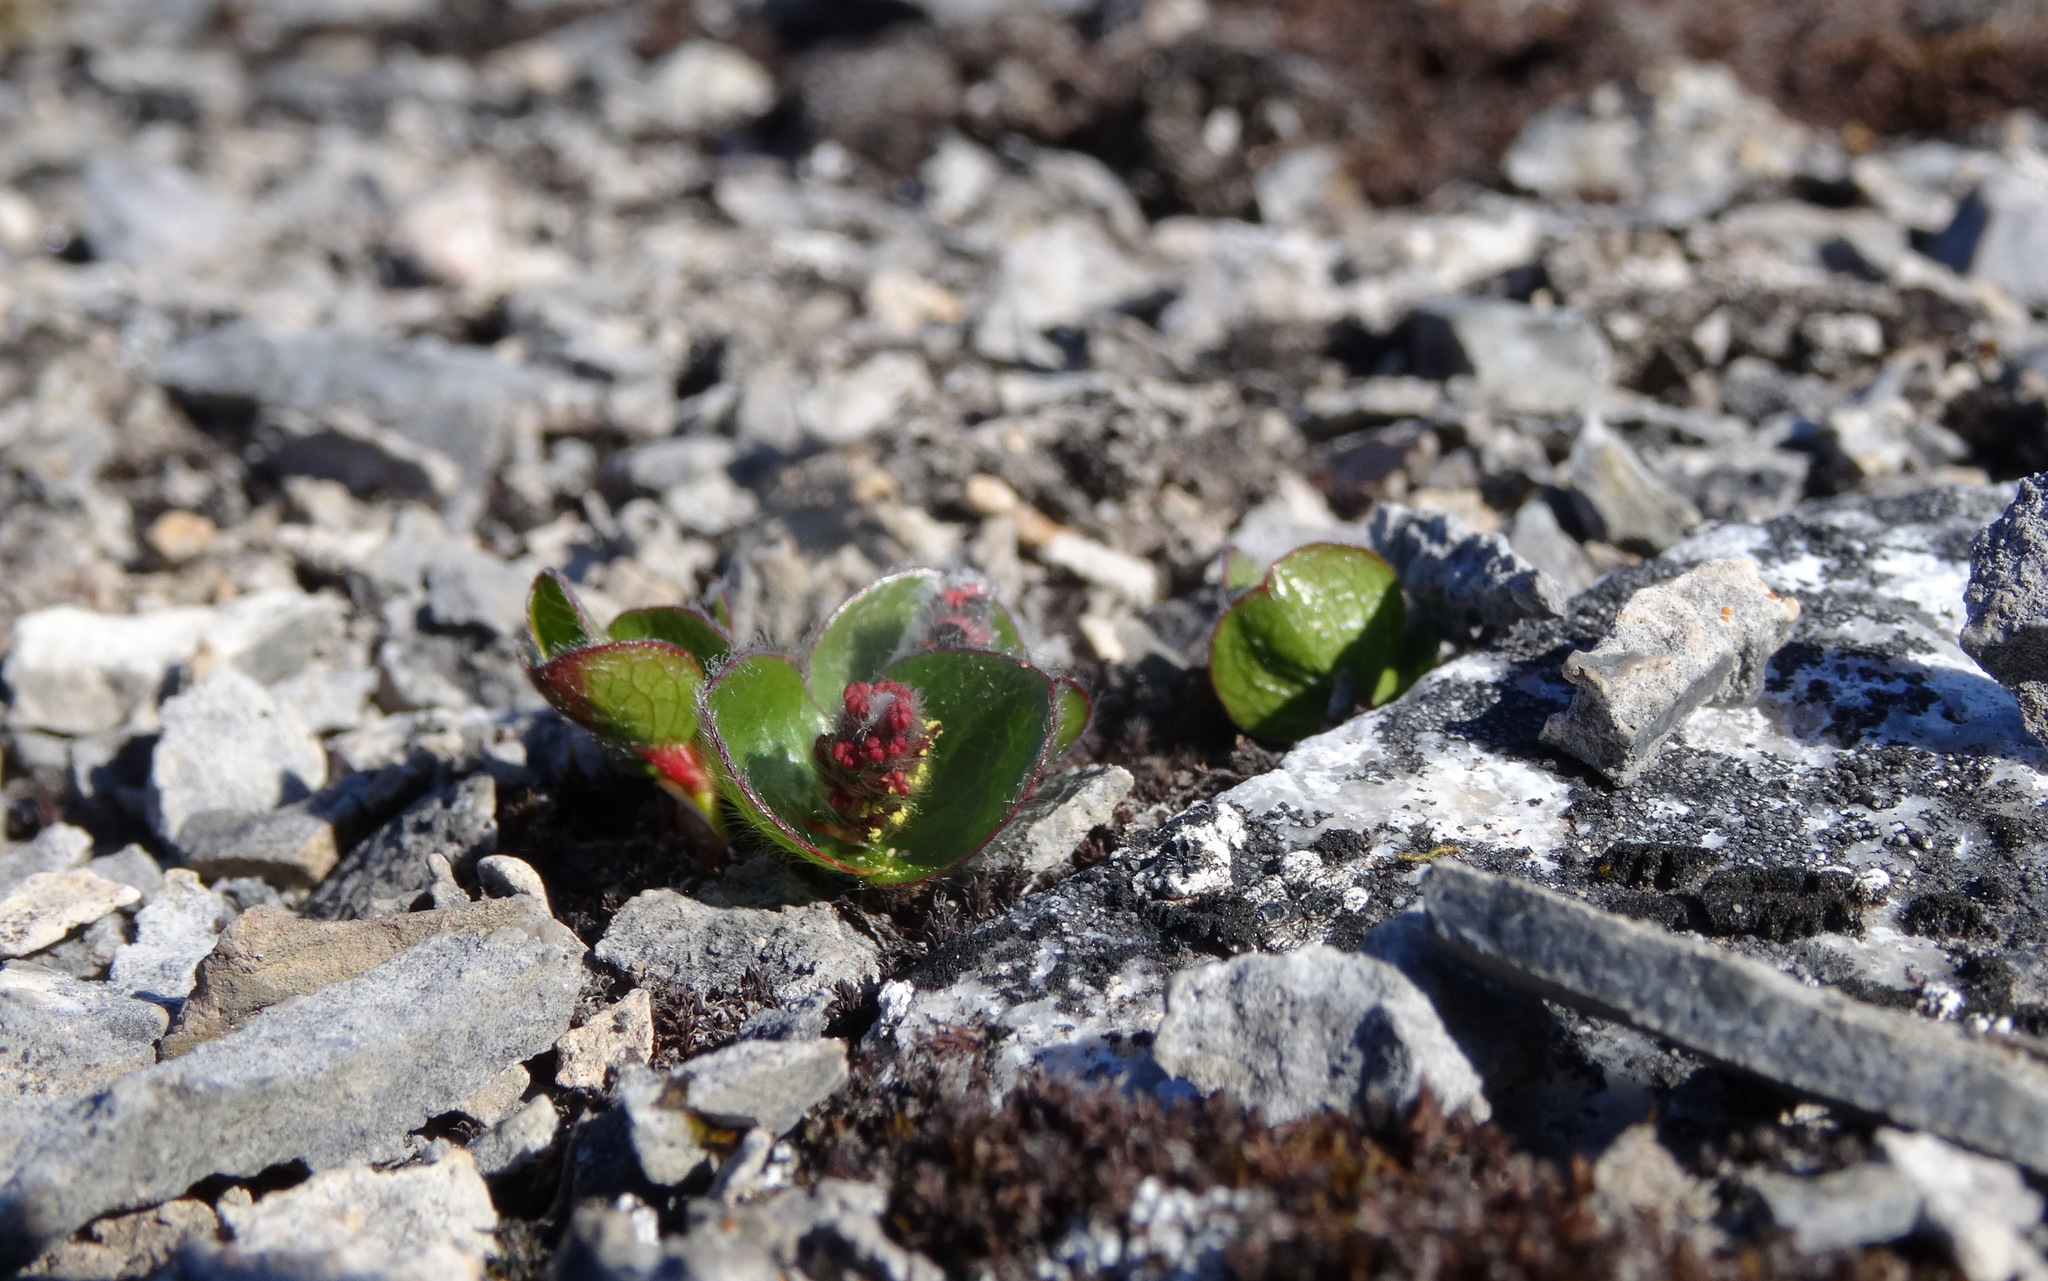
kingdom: Plantae
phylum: Tracheophyta
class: Magnoliopsida
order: Malpighiales
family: Salicaceae
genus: Salix
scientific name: Salix polaris
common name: Polar willow
